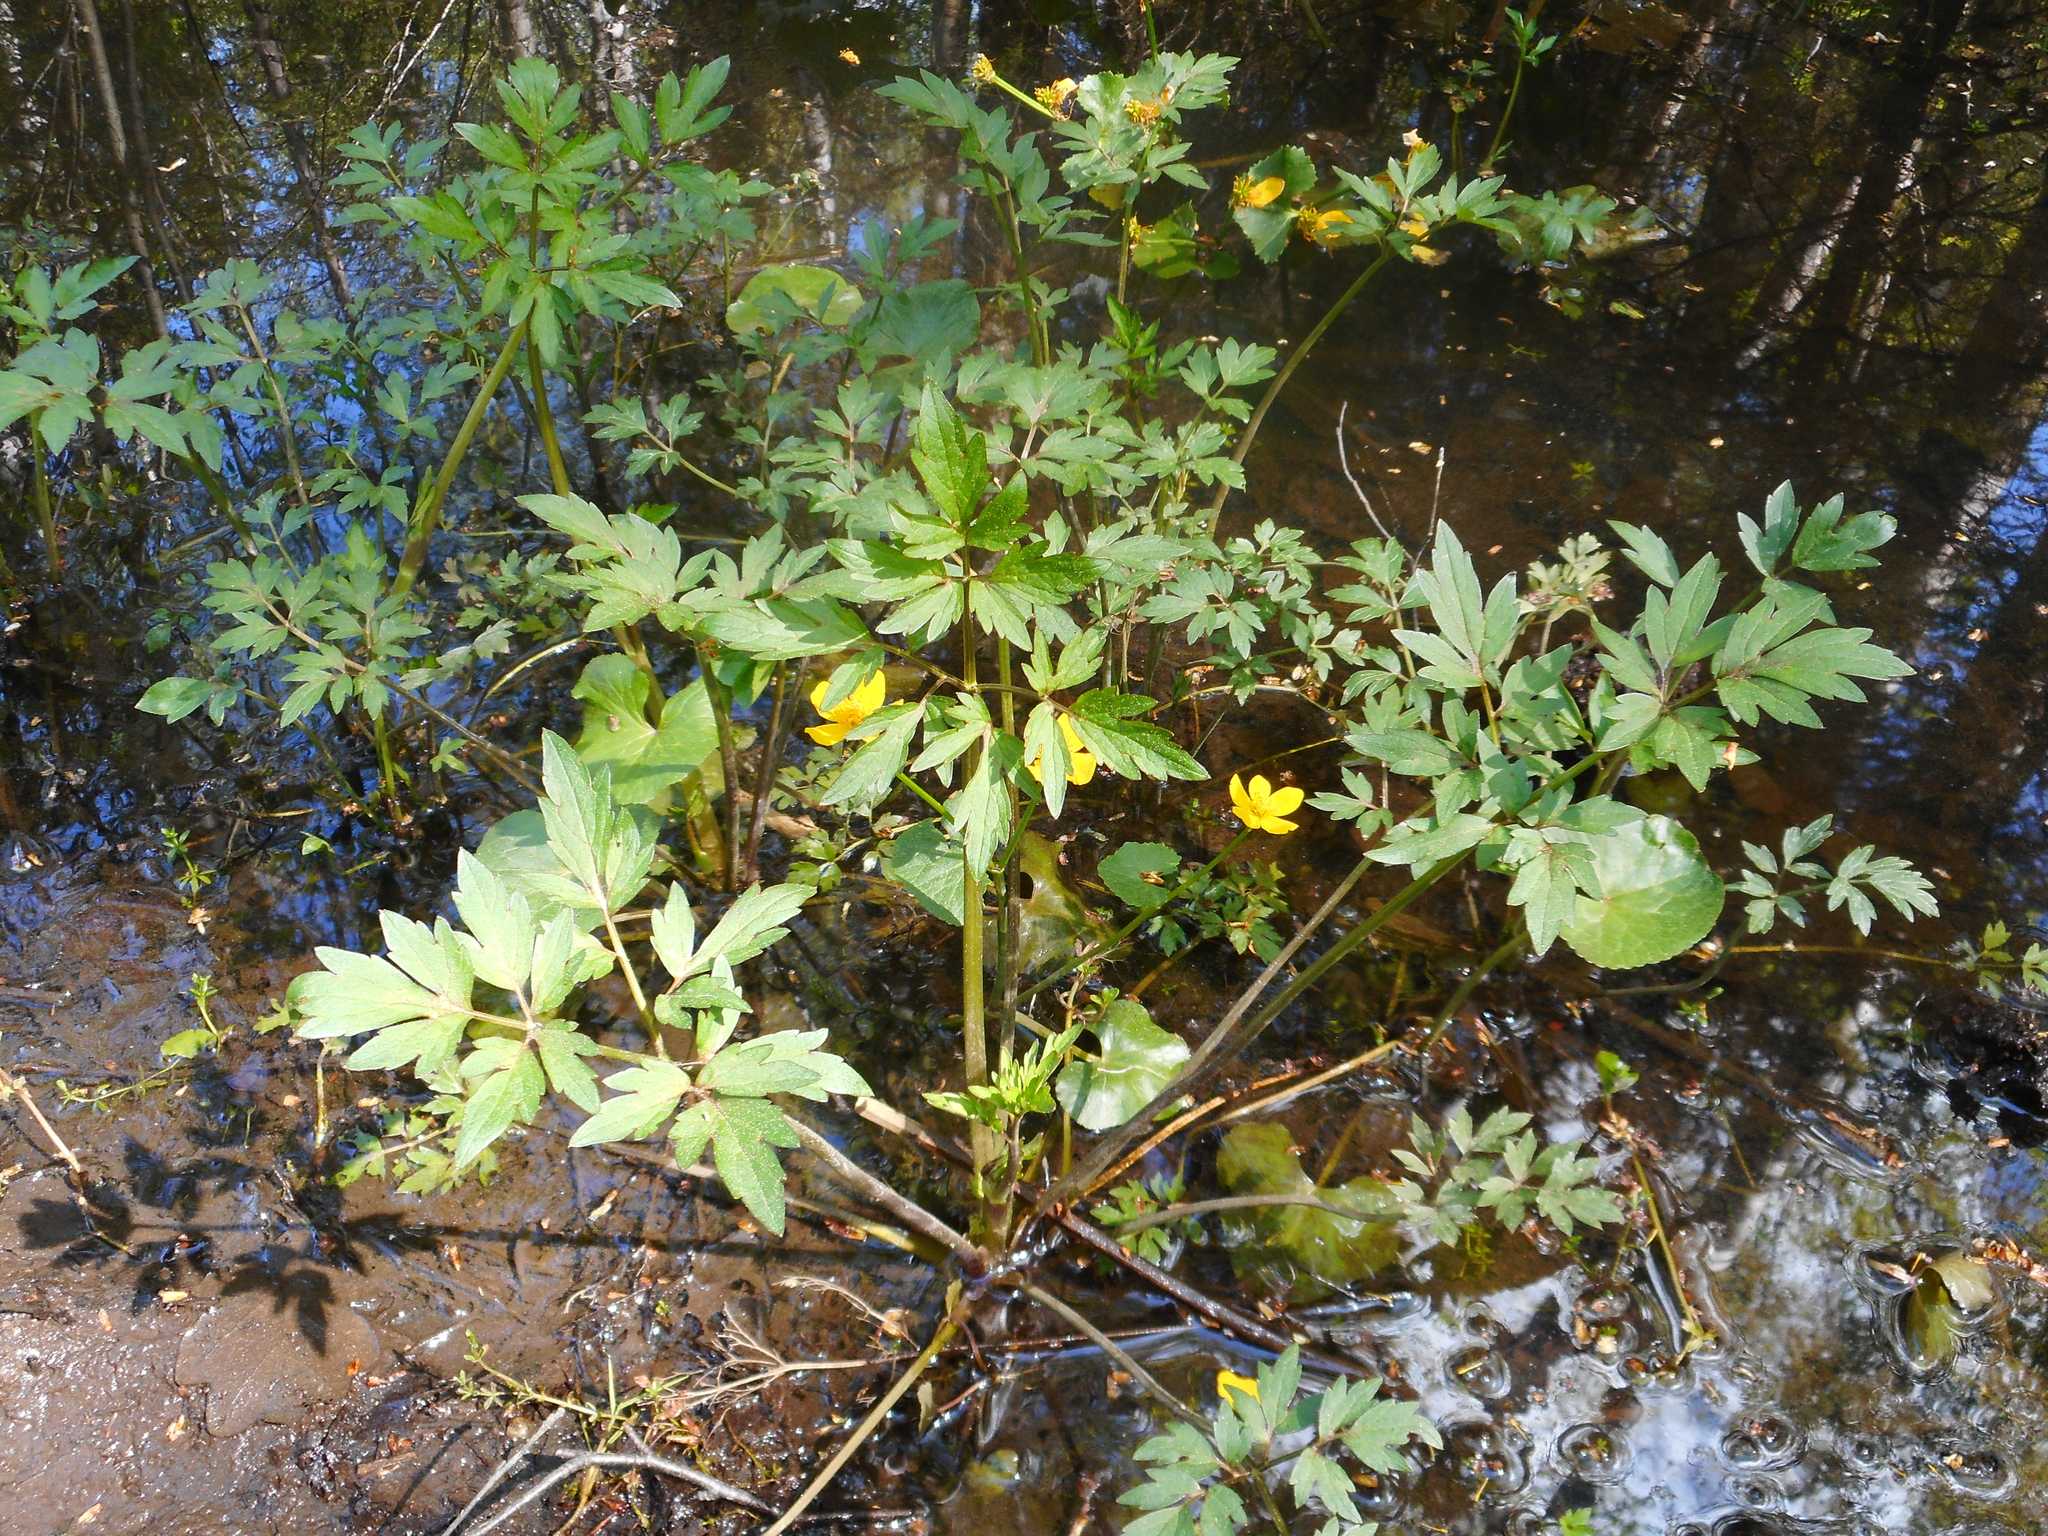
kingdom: Plantae
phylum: Tracheophyta
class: Magnoliopsida
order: Ranunculales
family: Ranunculaceae
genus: Ranunculus
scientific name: Ranunculus repens
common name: Creeping buttercup
